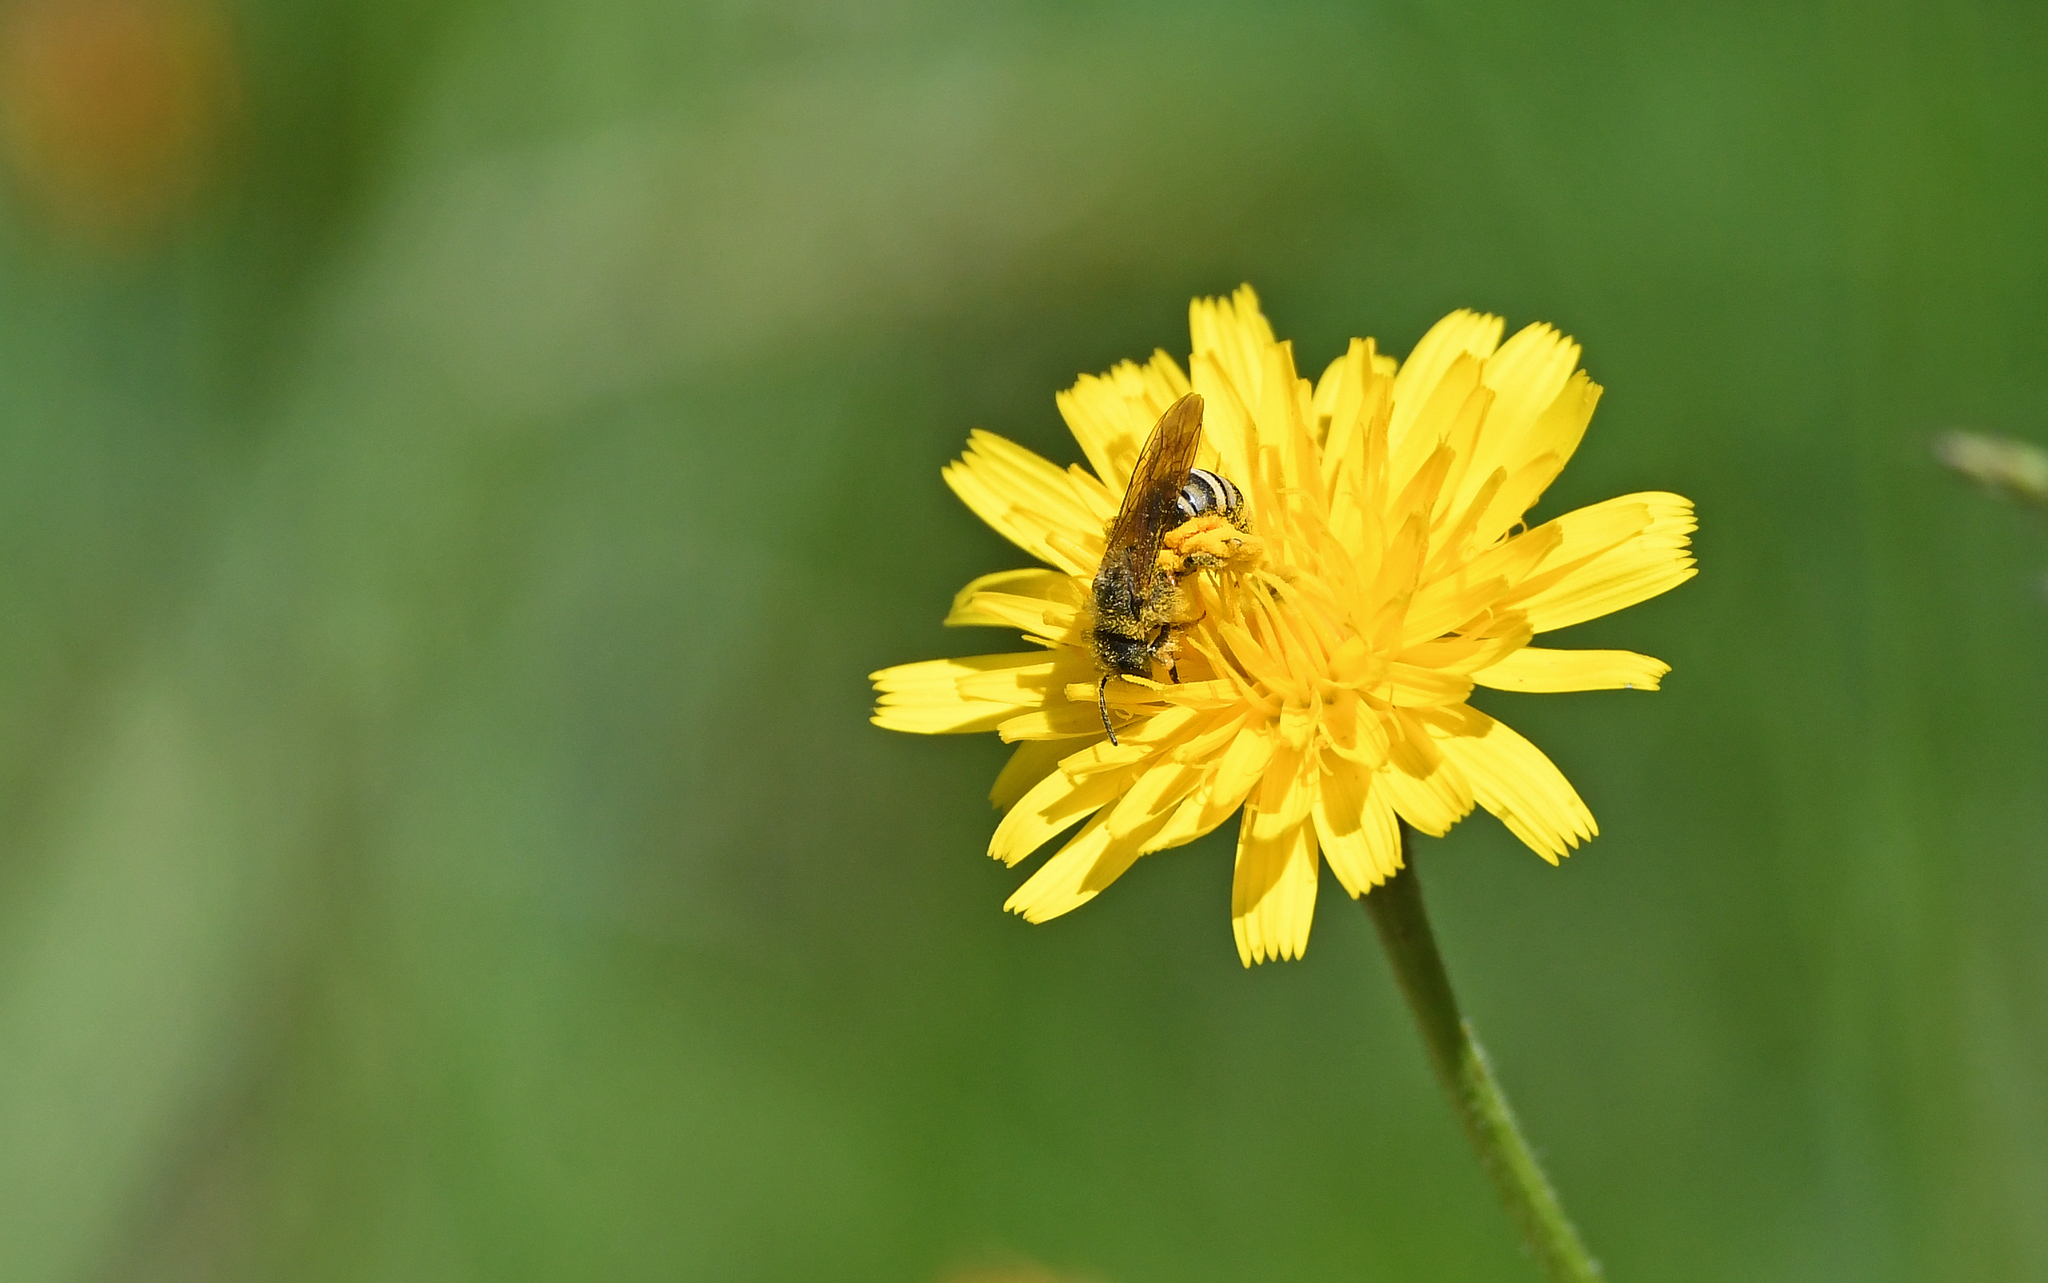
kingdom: Animalia
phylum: Arthropoda
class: Insecta
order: Hymenoptera
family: Halictidae
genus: Halictus
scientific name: Halictus scabiosae
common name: Great banded furrow bee
